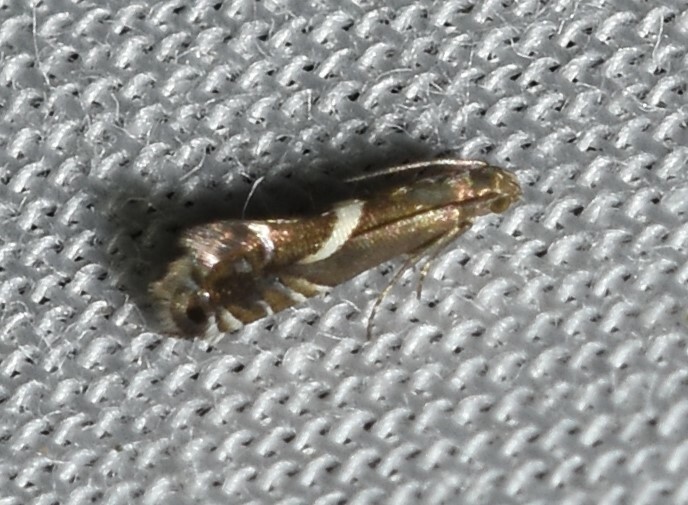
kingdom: Animalia
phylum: Arthropoda
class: Insecta
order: Lepidoptera
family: Glyphipterigidae
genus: Glyphipterix
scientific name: Glyphipterix Diploschizia impigritella
